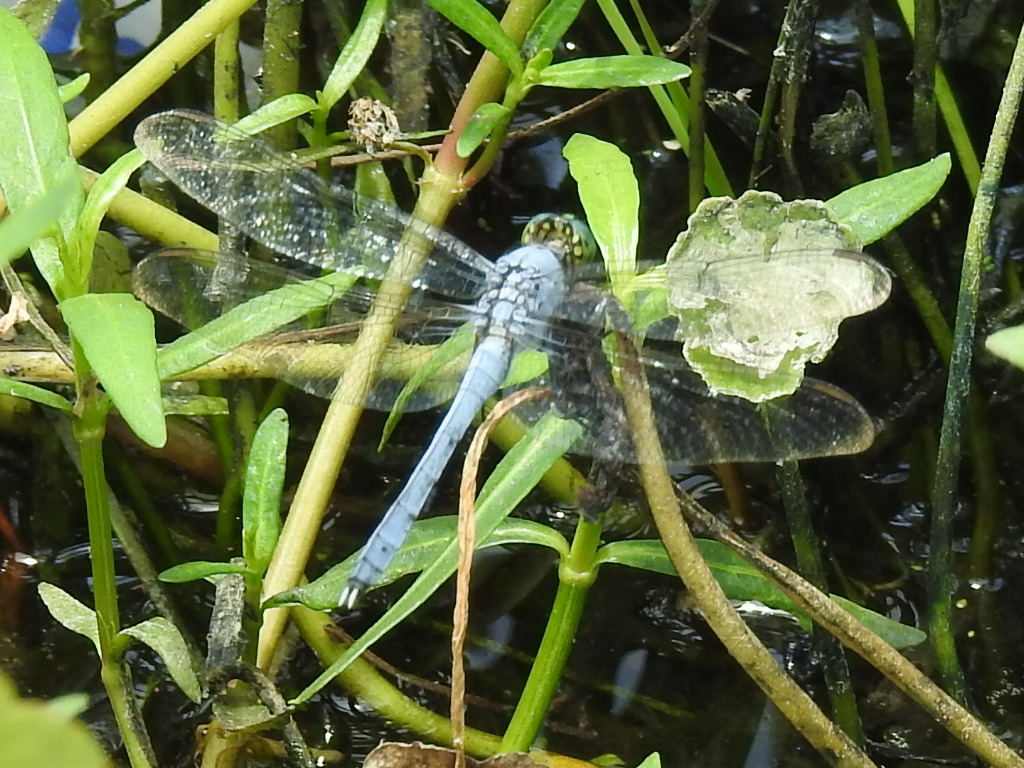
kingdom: Animalia
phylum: Arthropoda
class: Insecta
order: Odonata
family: Libellulidae
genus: Erythemis
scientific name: Erythemis simplicicollis
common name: Eastern pondhawk
